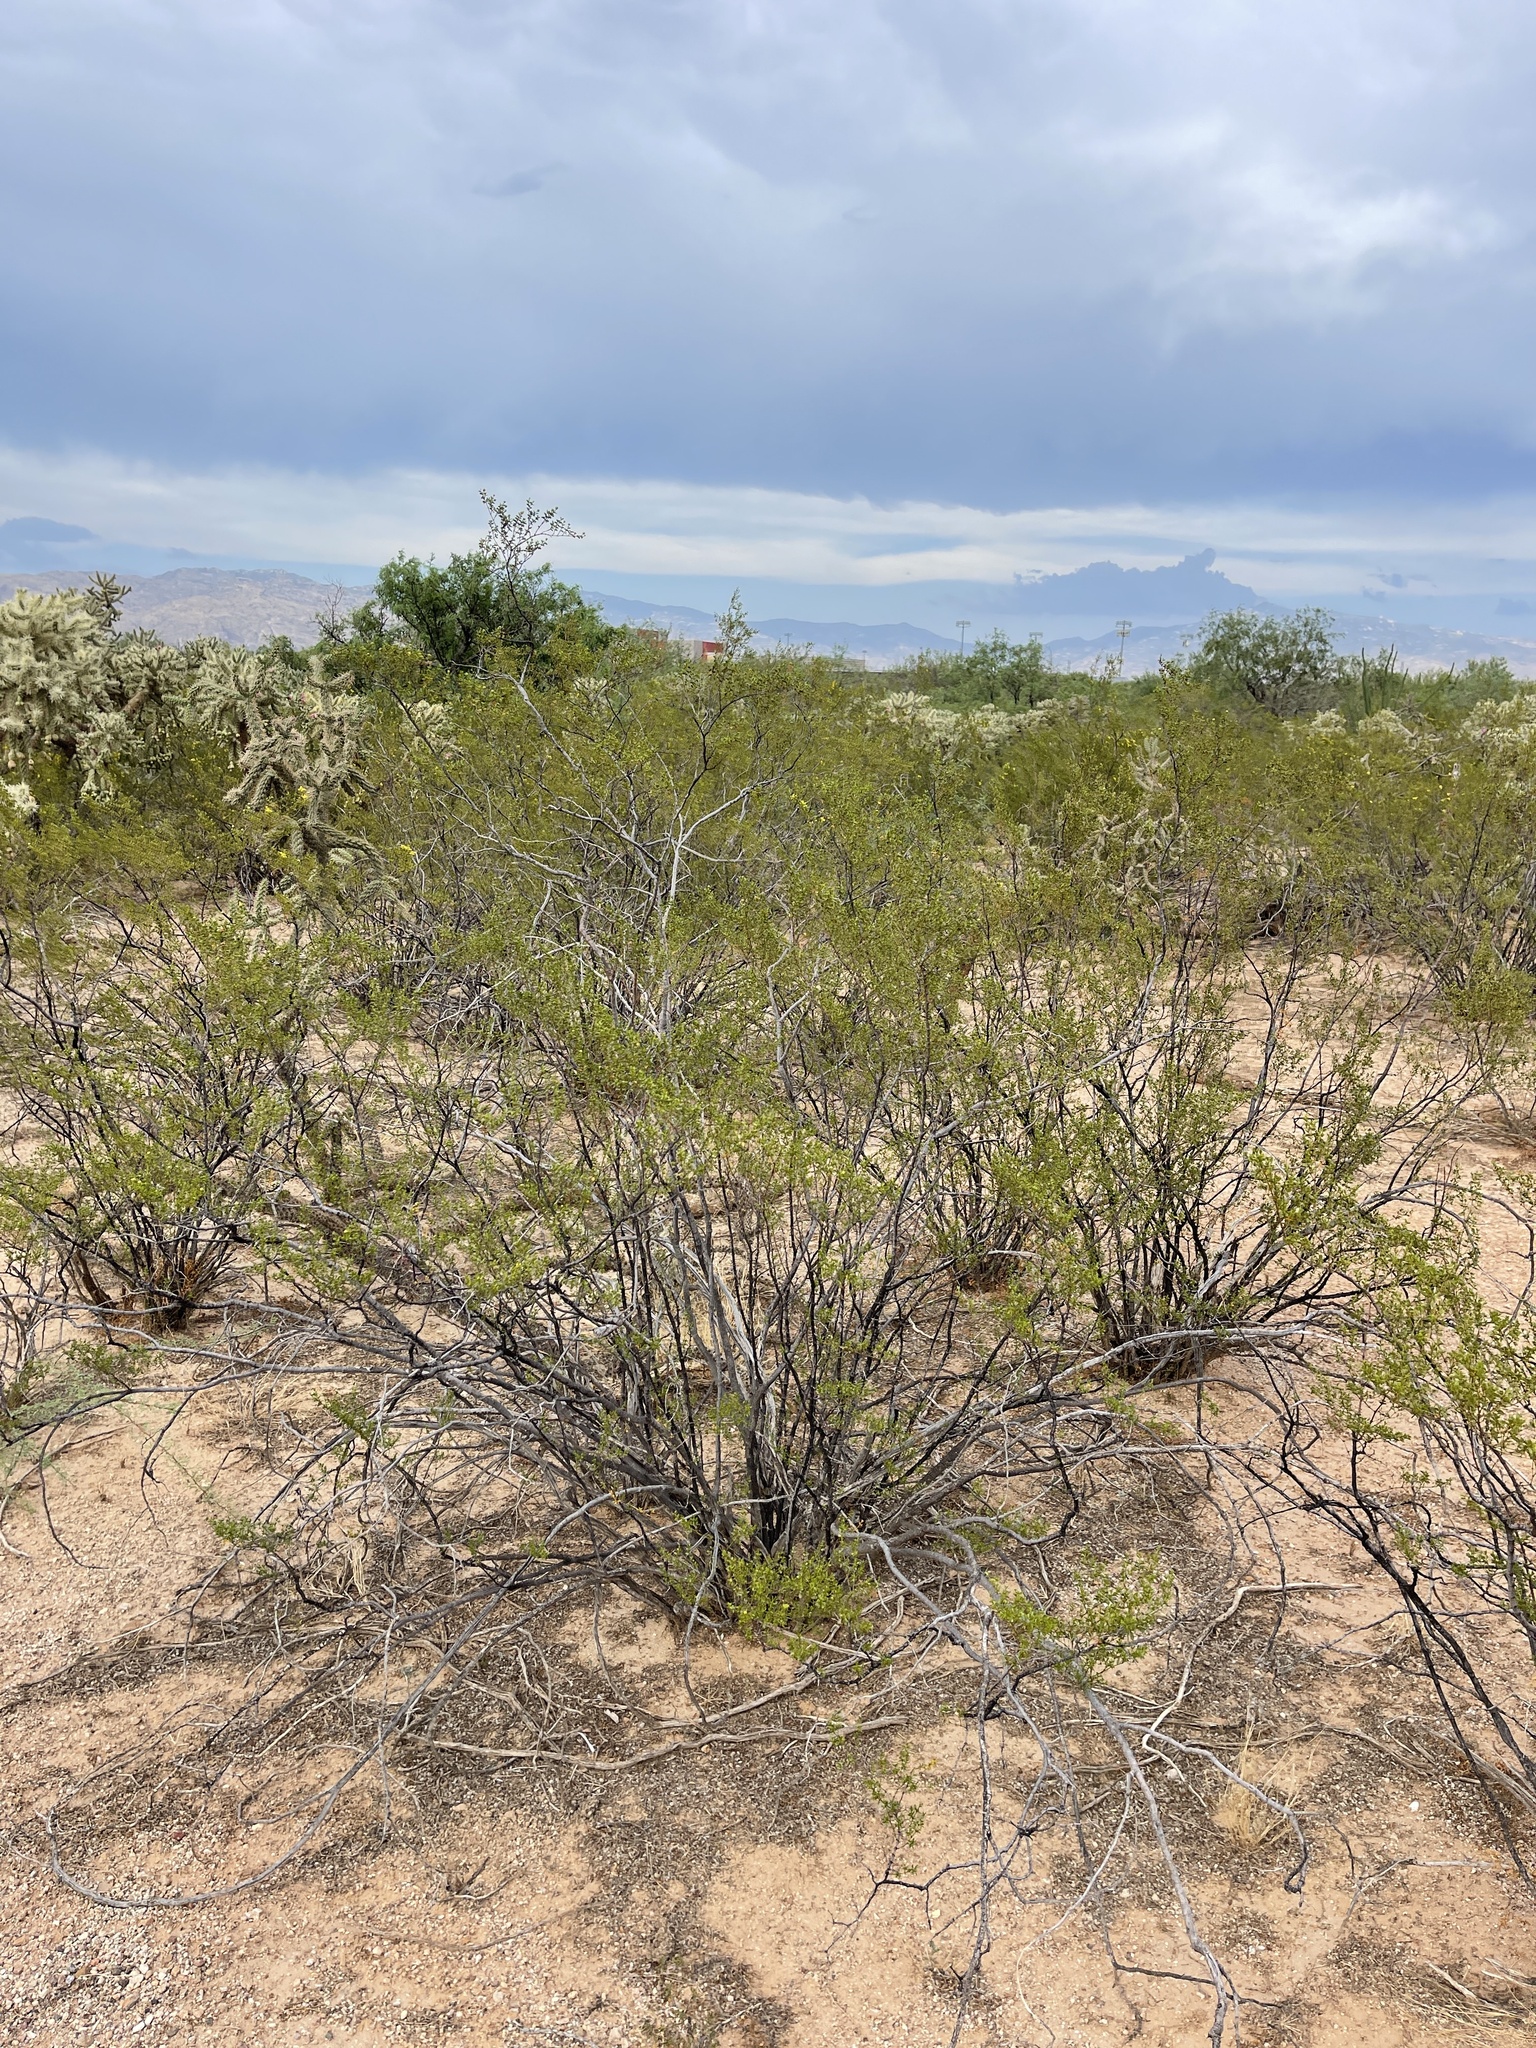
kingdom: Plantae
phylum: Tracheophyta
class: Magnoliopsida
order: Zygophyllales
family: Zygophyllaceae
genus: Larrea
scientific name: Larrea tridentata
